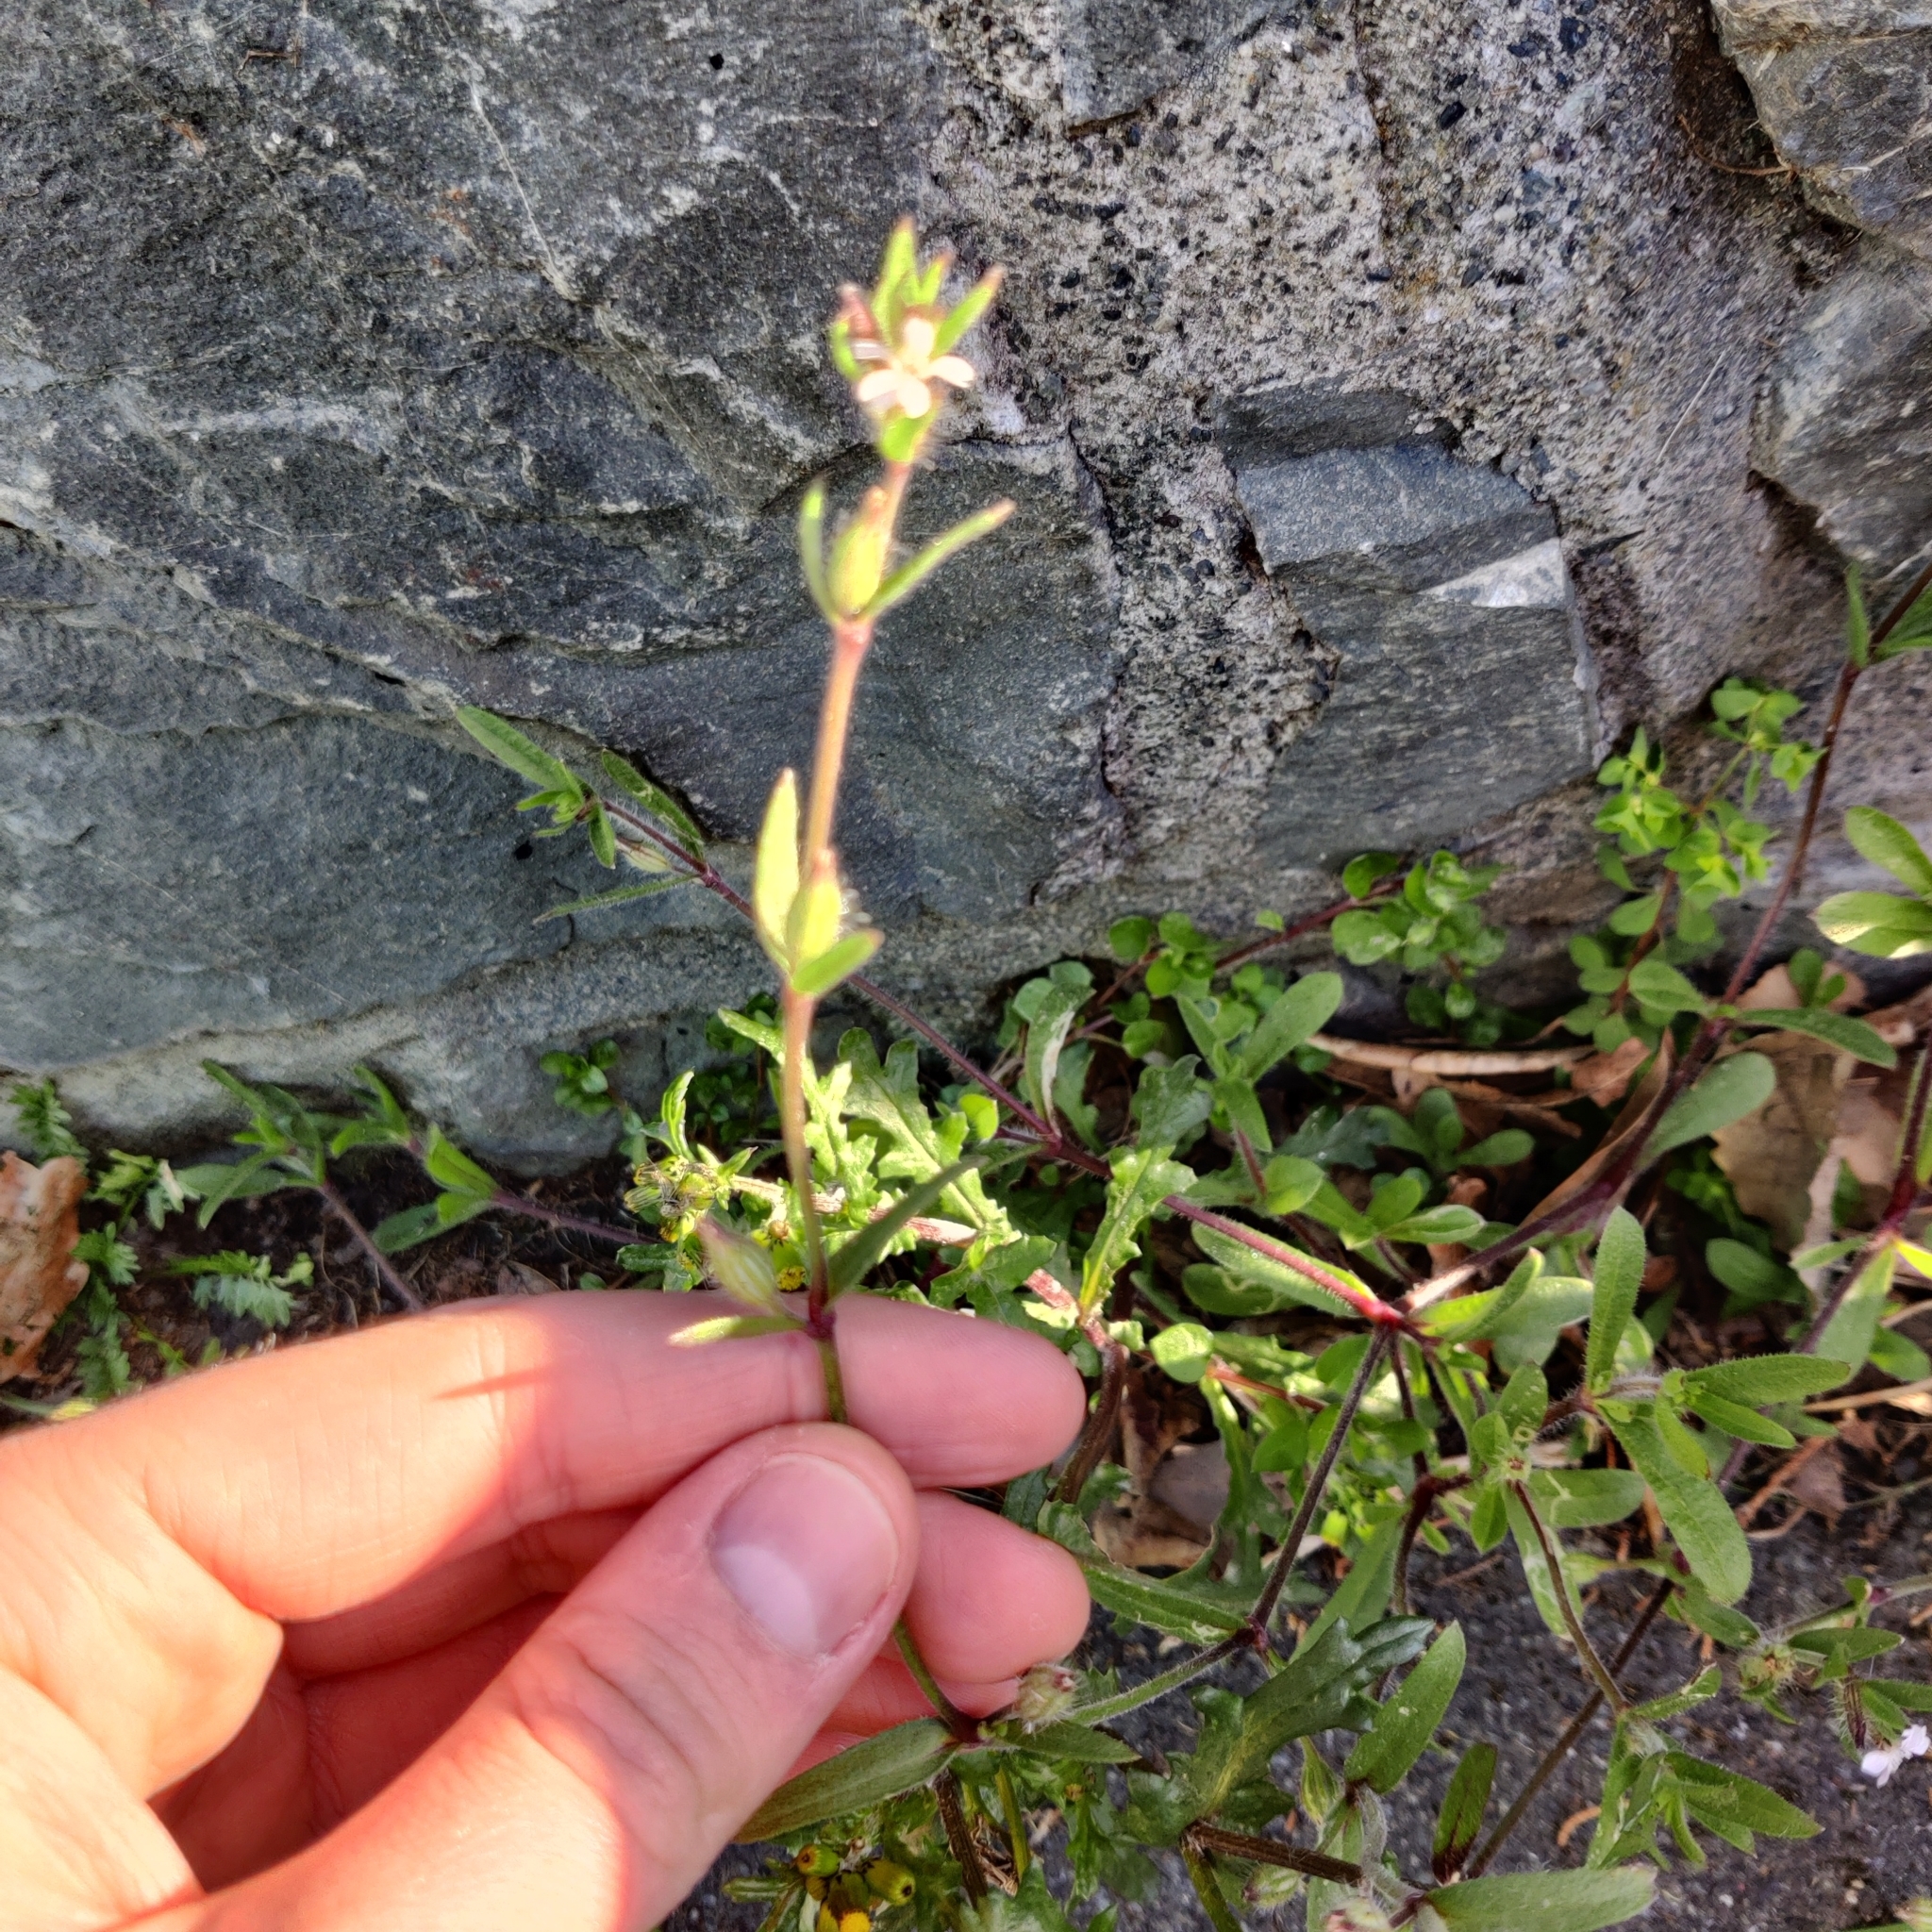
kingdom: Plantae
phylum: Tracheophyta
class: Magnoliopsida
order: Caryophyllales
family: Caryophyllaceae
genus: Silene
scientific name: Silene gallica
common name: Small-flowered catchfly
